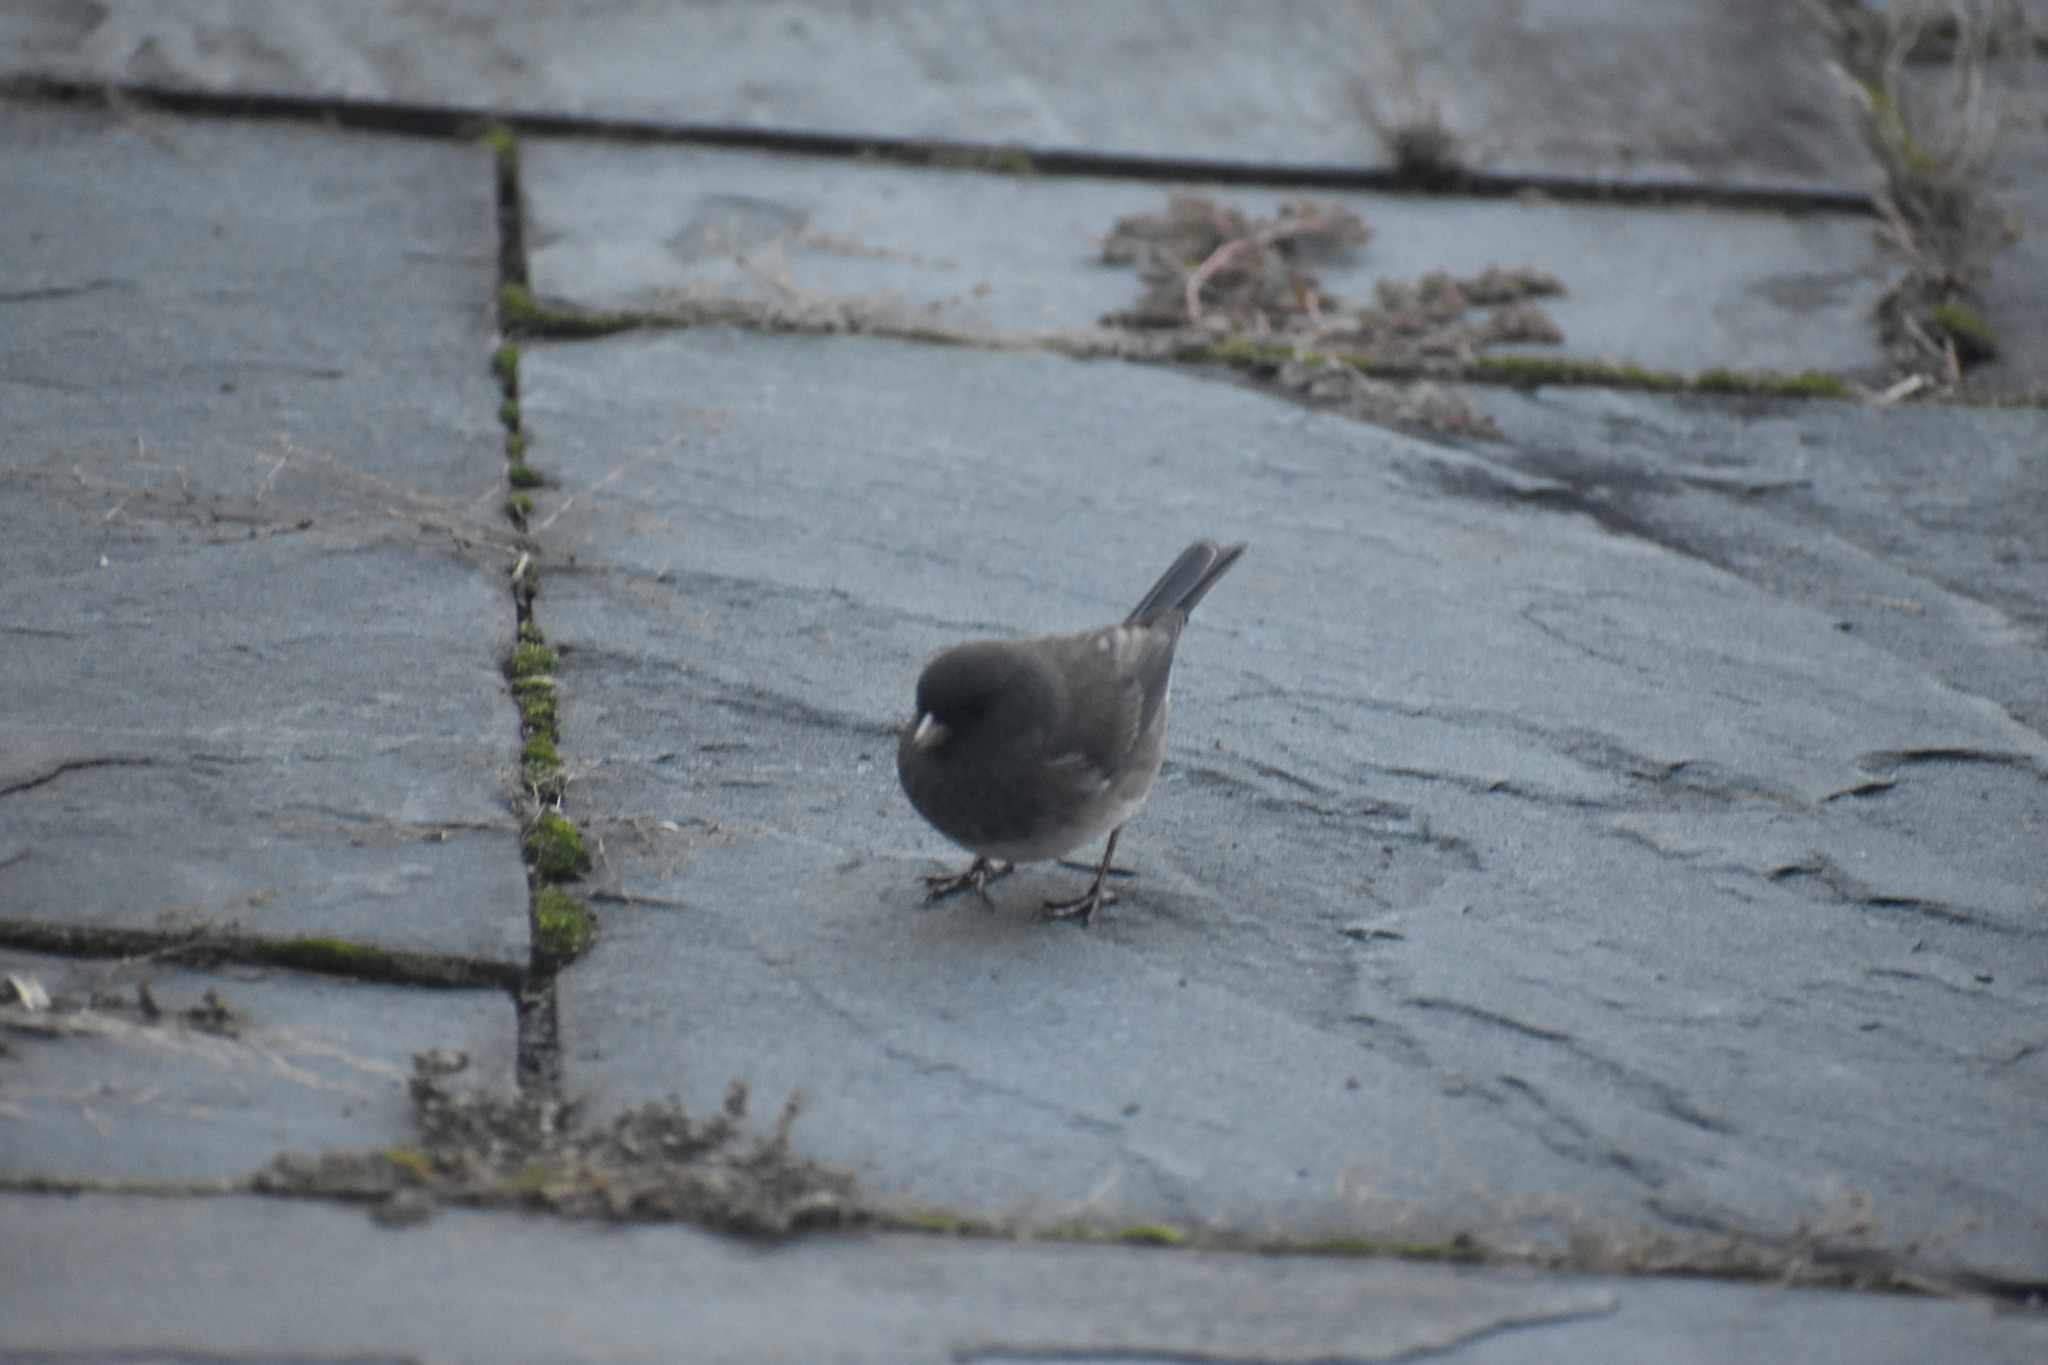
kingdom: Animalia
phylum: Chordata
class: Aves
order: Passeriformes
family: Passerellidae
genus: Junco
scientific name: Junco hyemalis
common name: Dark-eyed junco
